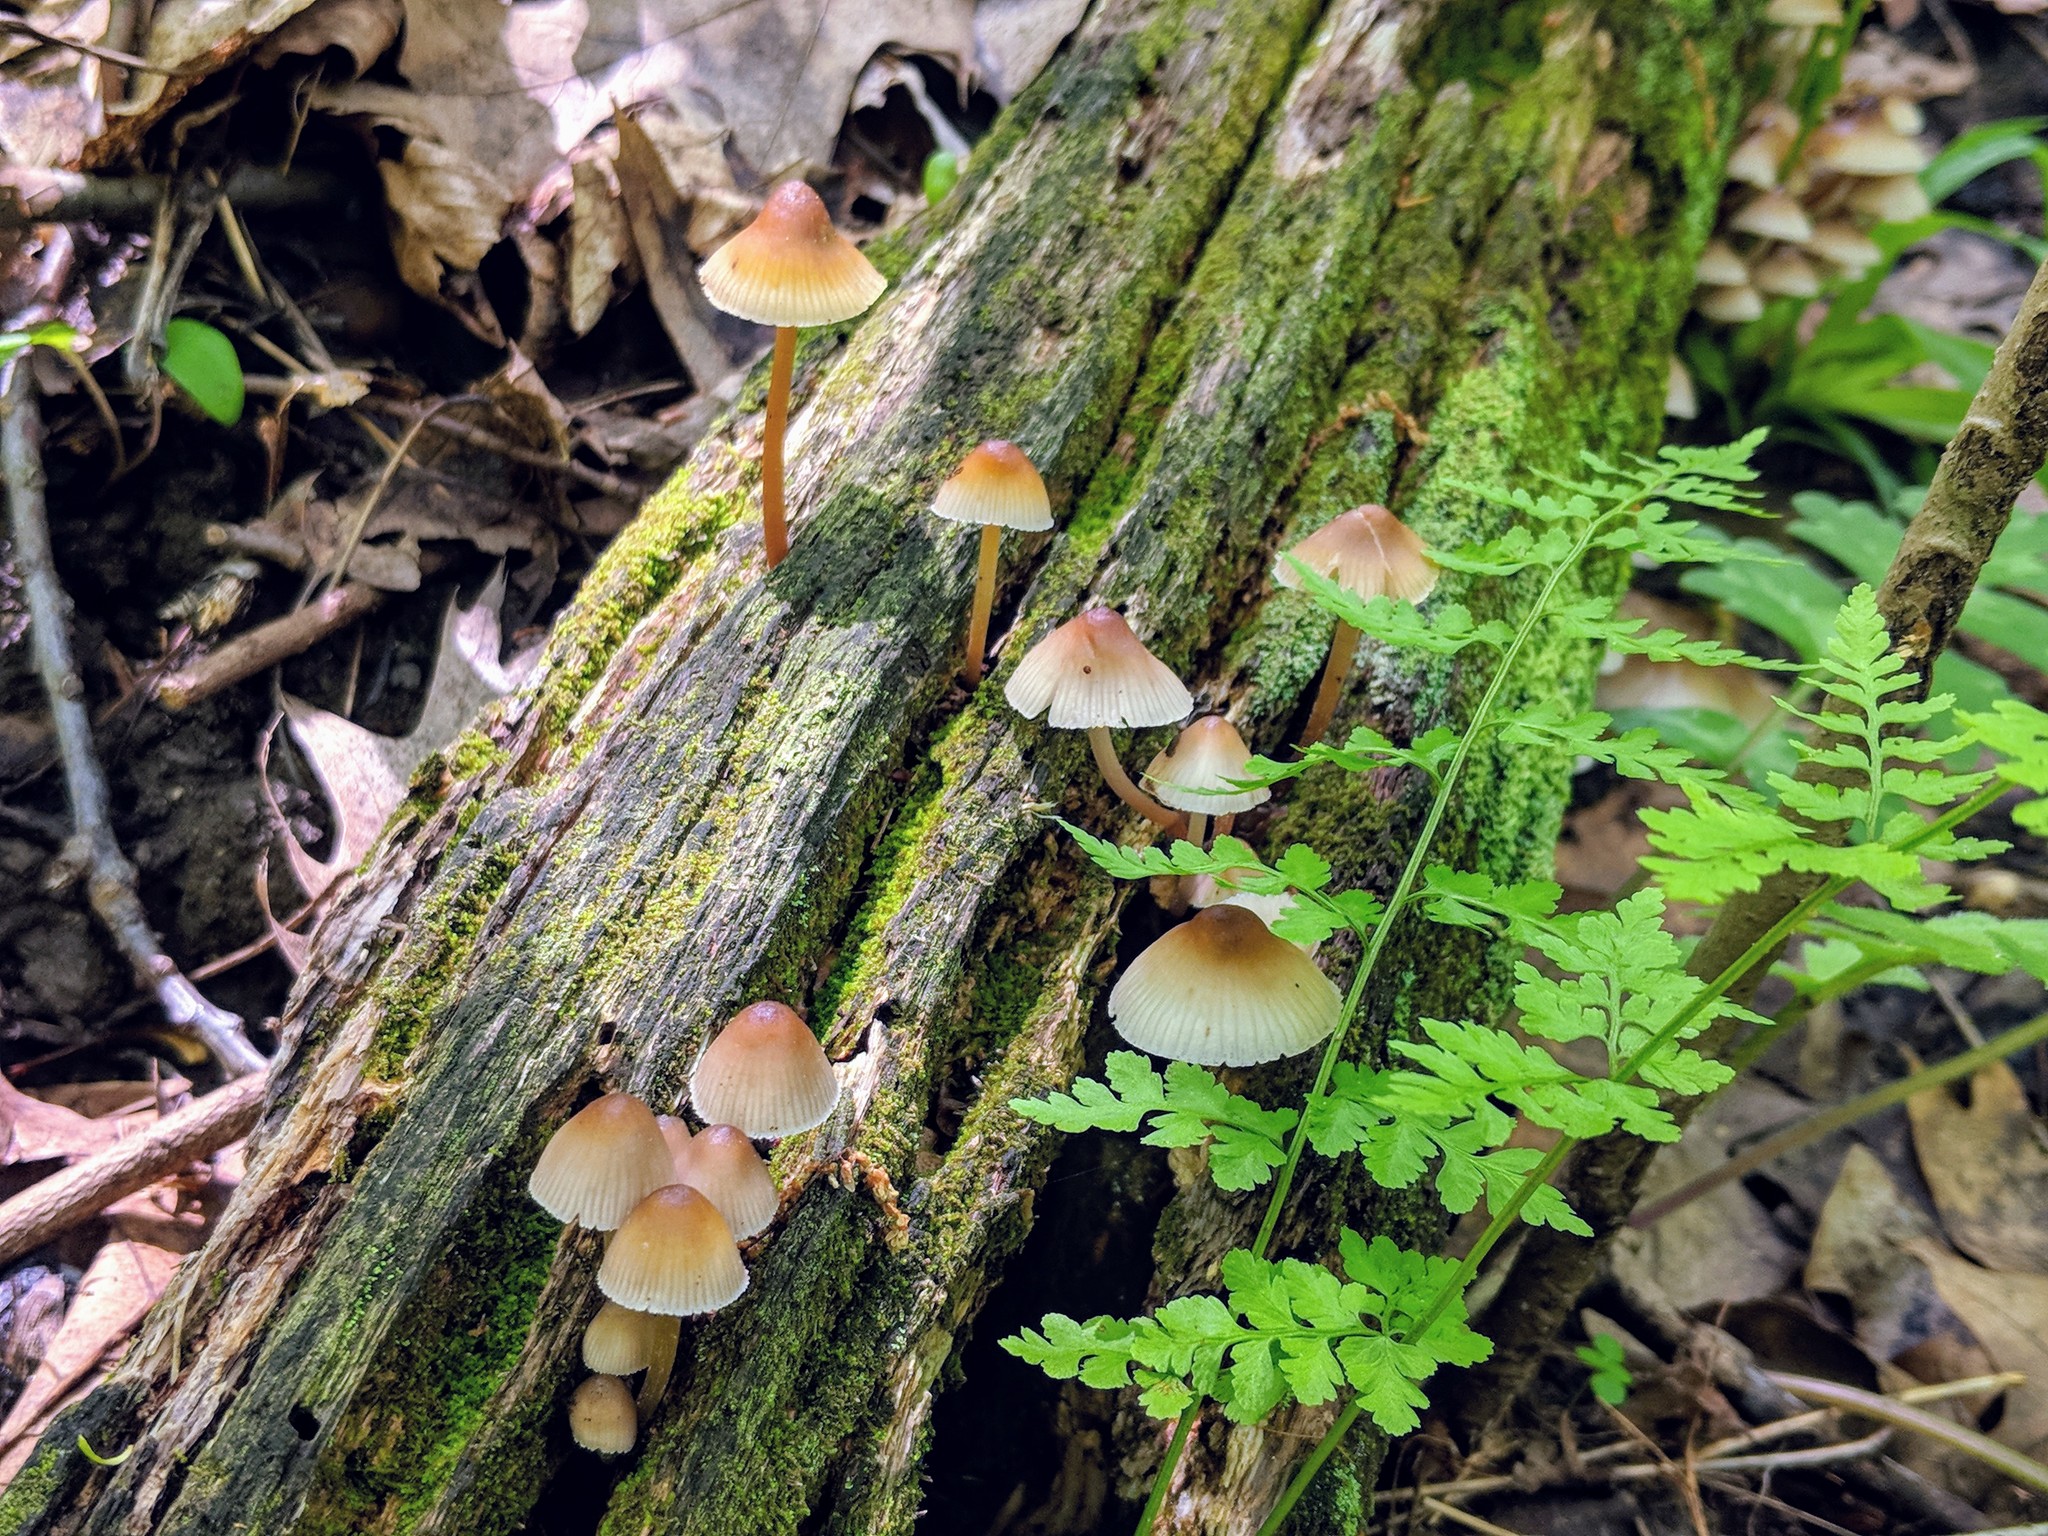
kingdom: Fungi
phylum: Basidiomycota
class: Agaricomycetes
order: Agaricales
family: Mycenaceae
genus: Mycena
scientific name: Mycena inclinata
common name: Clustered bonnet
